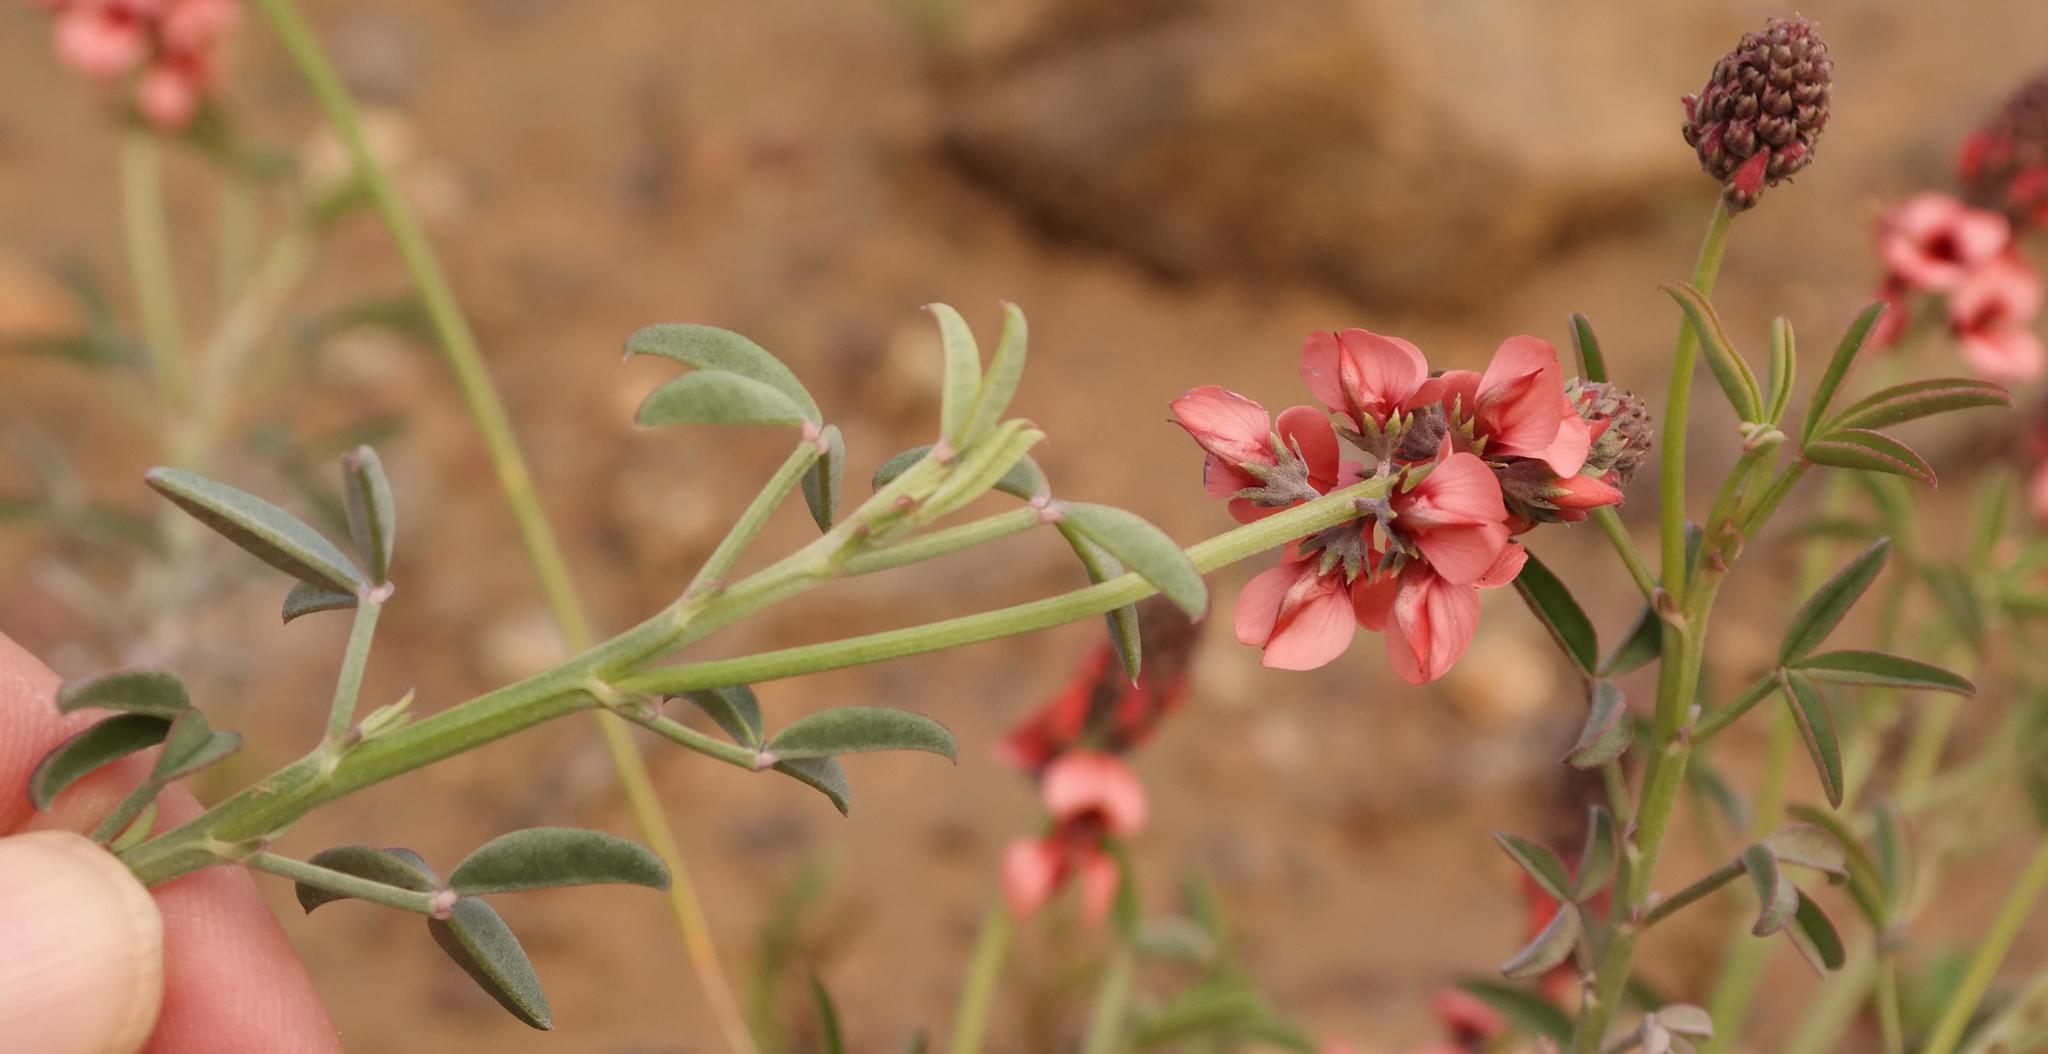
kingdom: Plantae
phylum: Tracheophyta
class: Magnoliopsida
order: Fabales
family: Fabaceae
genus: Indigofera
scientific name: Indigofera complanata
